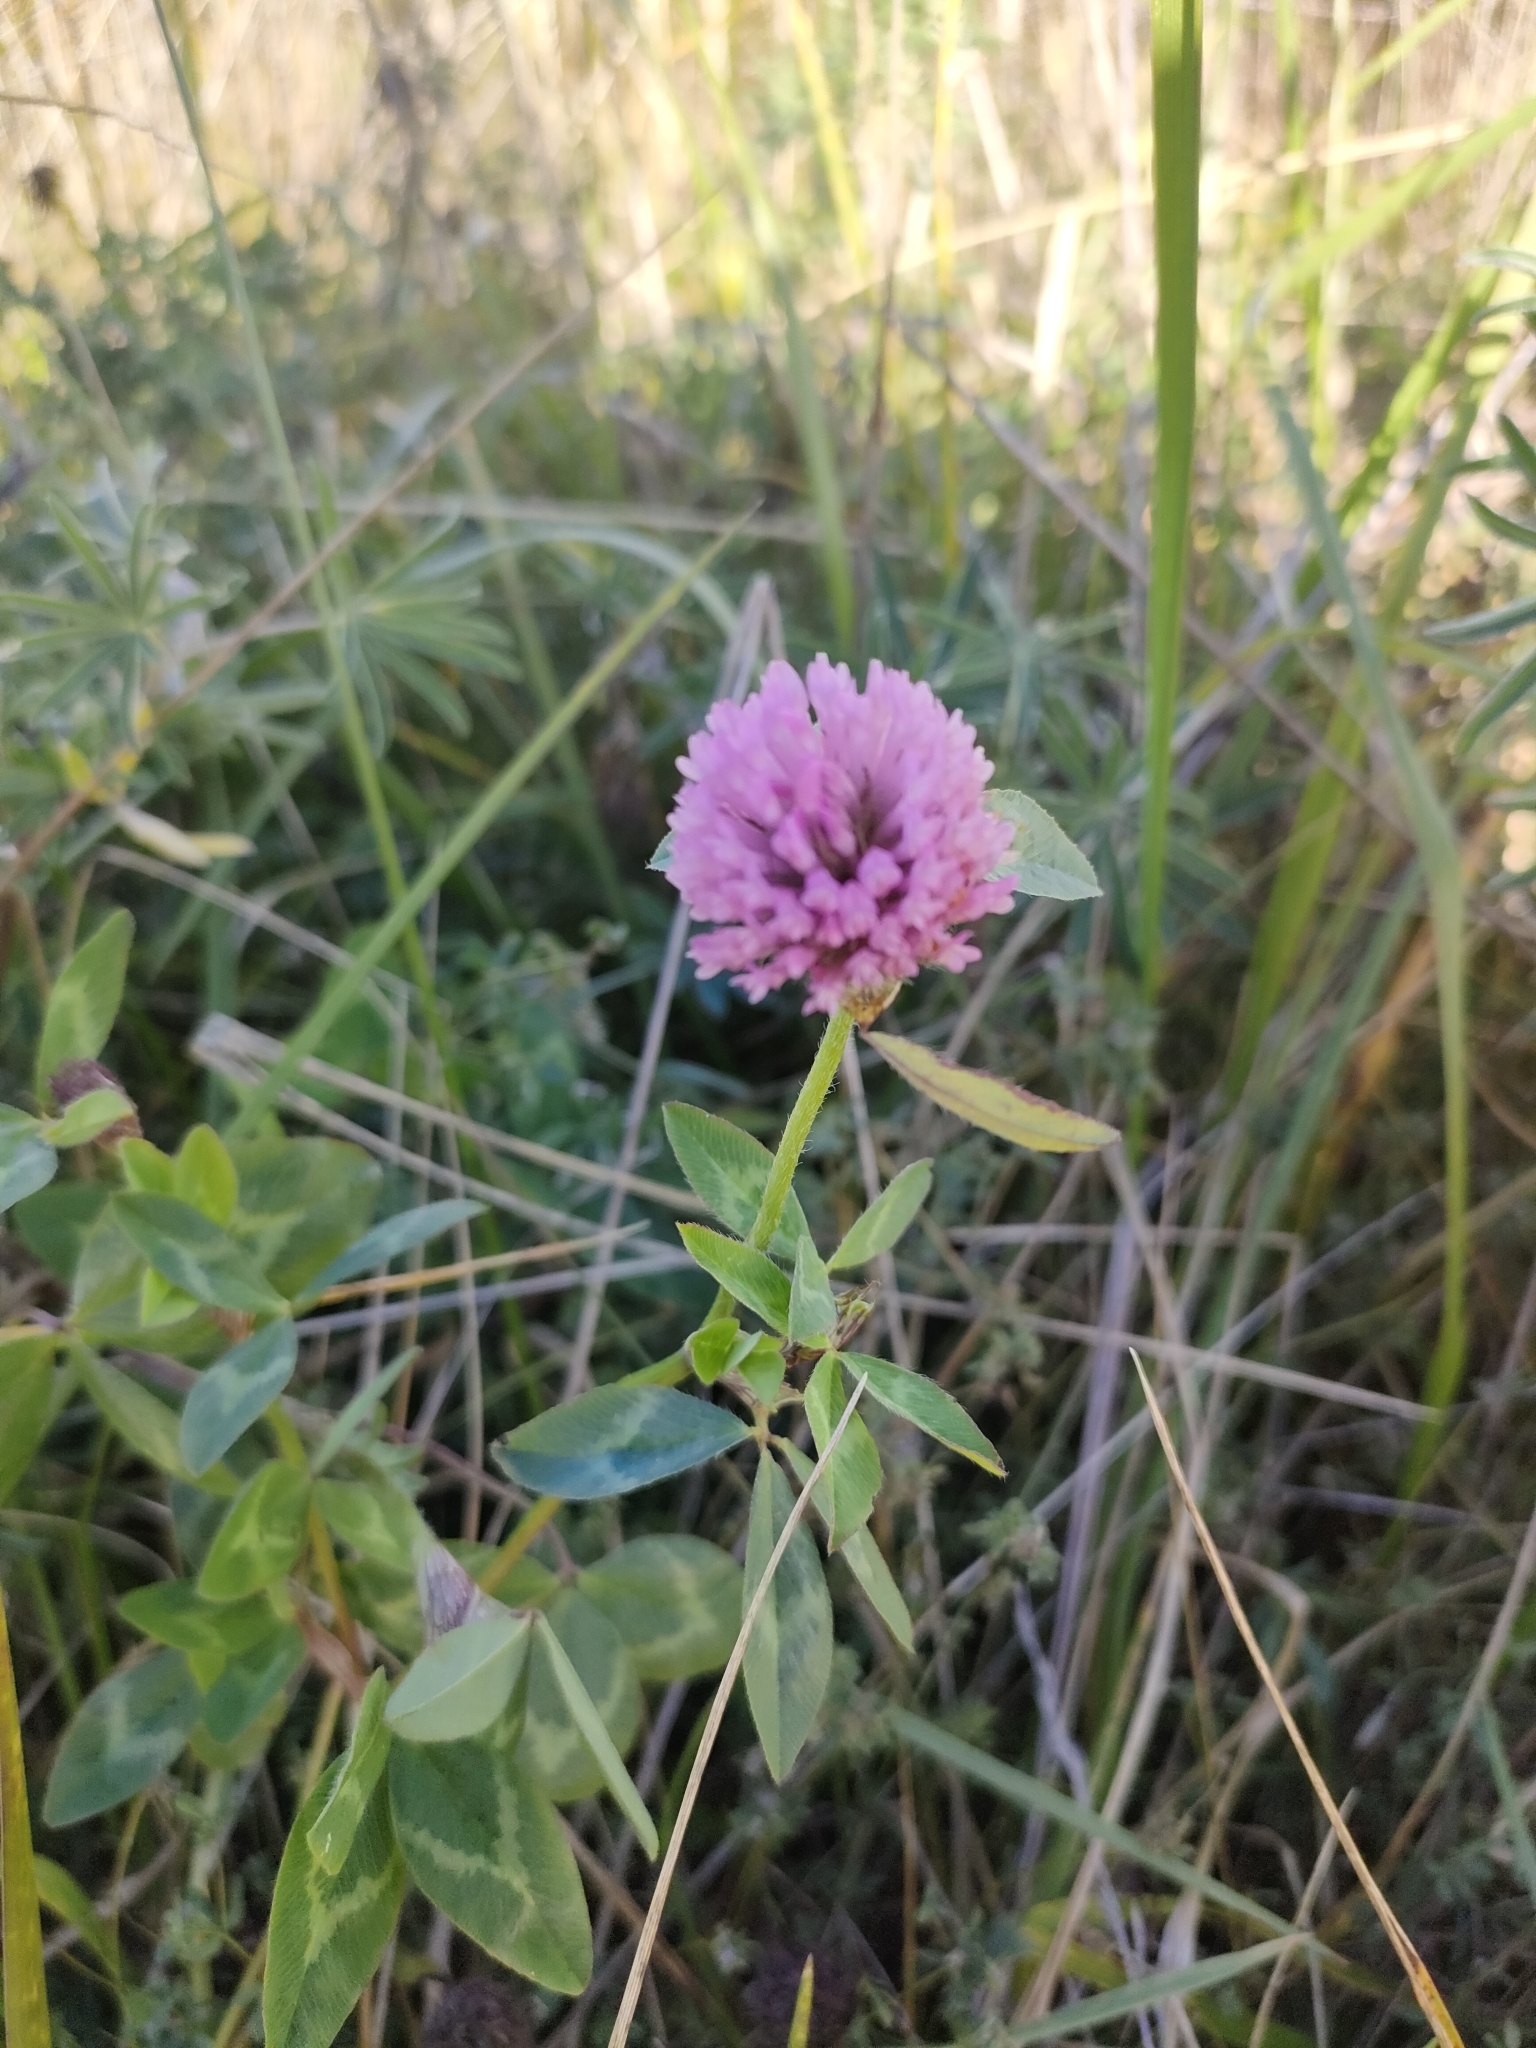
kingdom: Plantae
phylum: Tracheophyta
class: Magnoliopsida
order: Fabales
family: Fabaceae
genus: Trifolium
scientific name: Trifolium pratense
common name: Red clover
